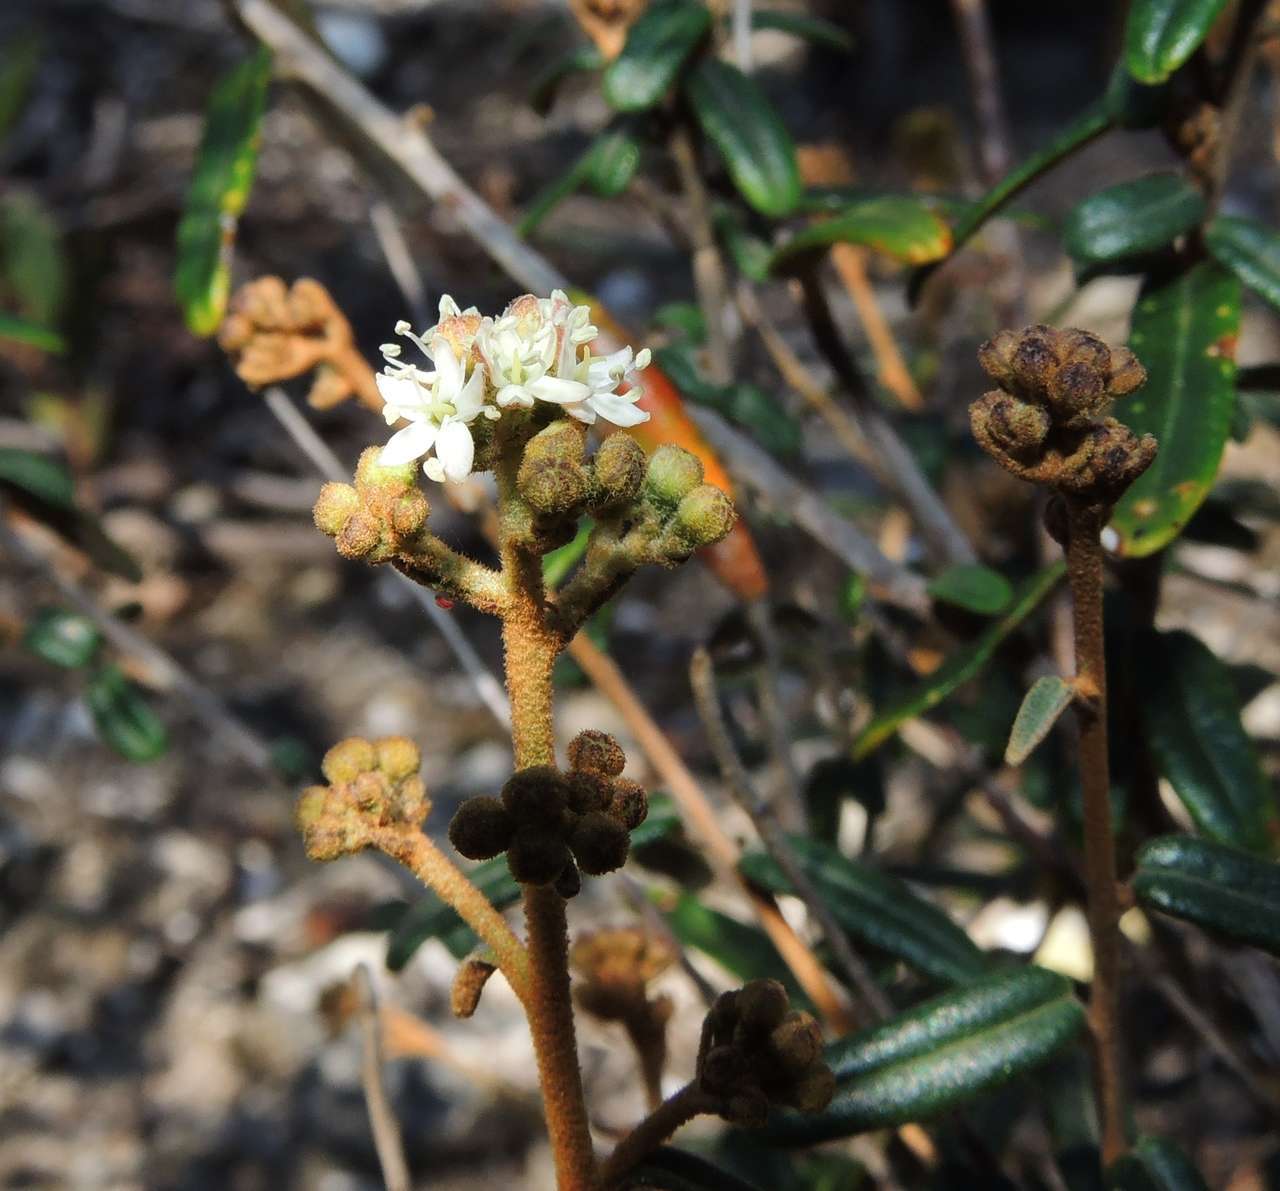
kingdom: Plantae
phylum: Tracheophyta
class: Magnoliopsida
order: Apiales
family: Araliaceae
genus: Astrotricha
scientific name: Astrotricha ledifolia
